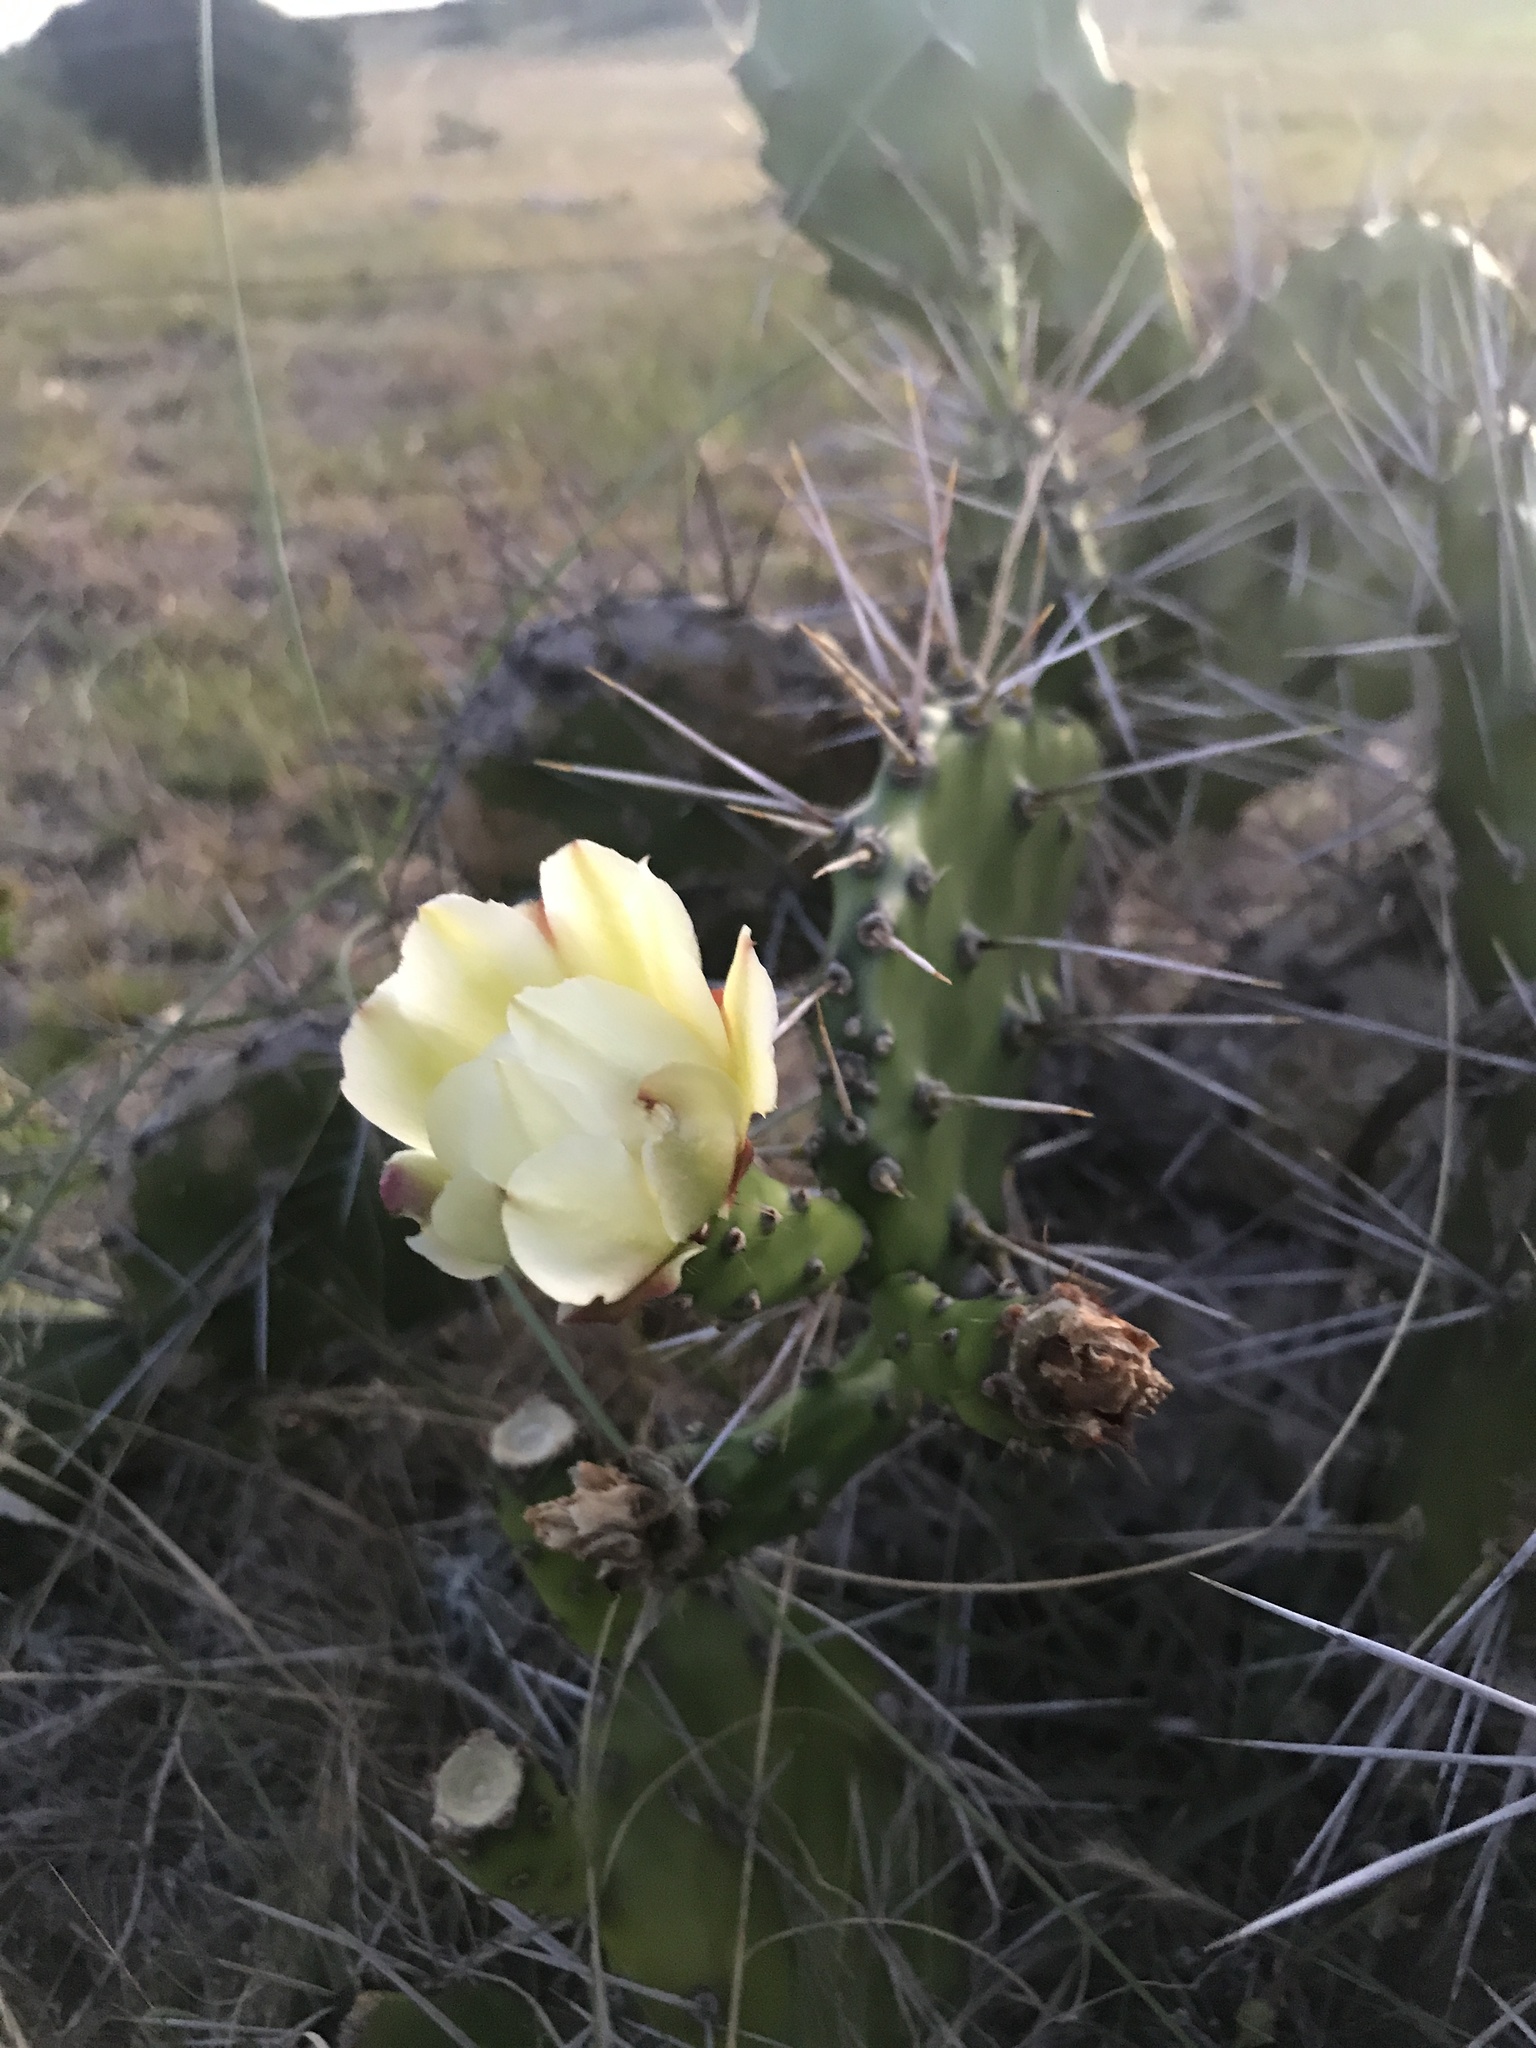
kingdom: Plantae
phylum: Tracheophyta
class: Magnoliopsida
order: Caryophyllales
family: Cactaceae
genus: Opuntia
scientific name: Opuntia arechavaletae
